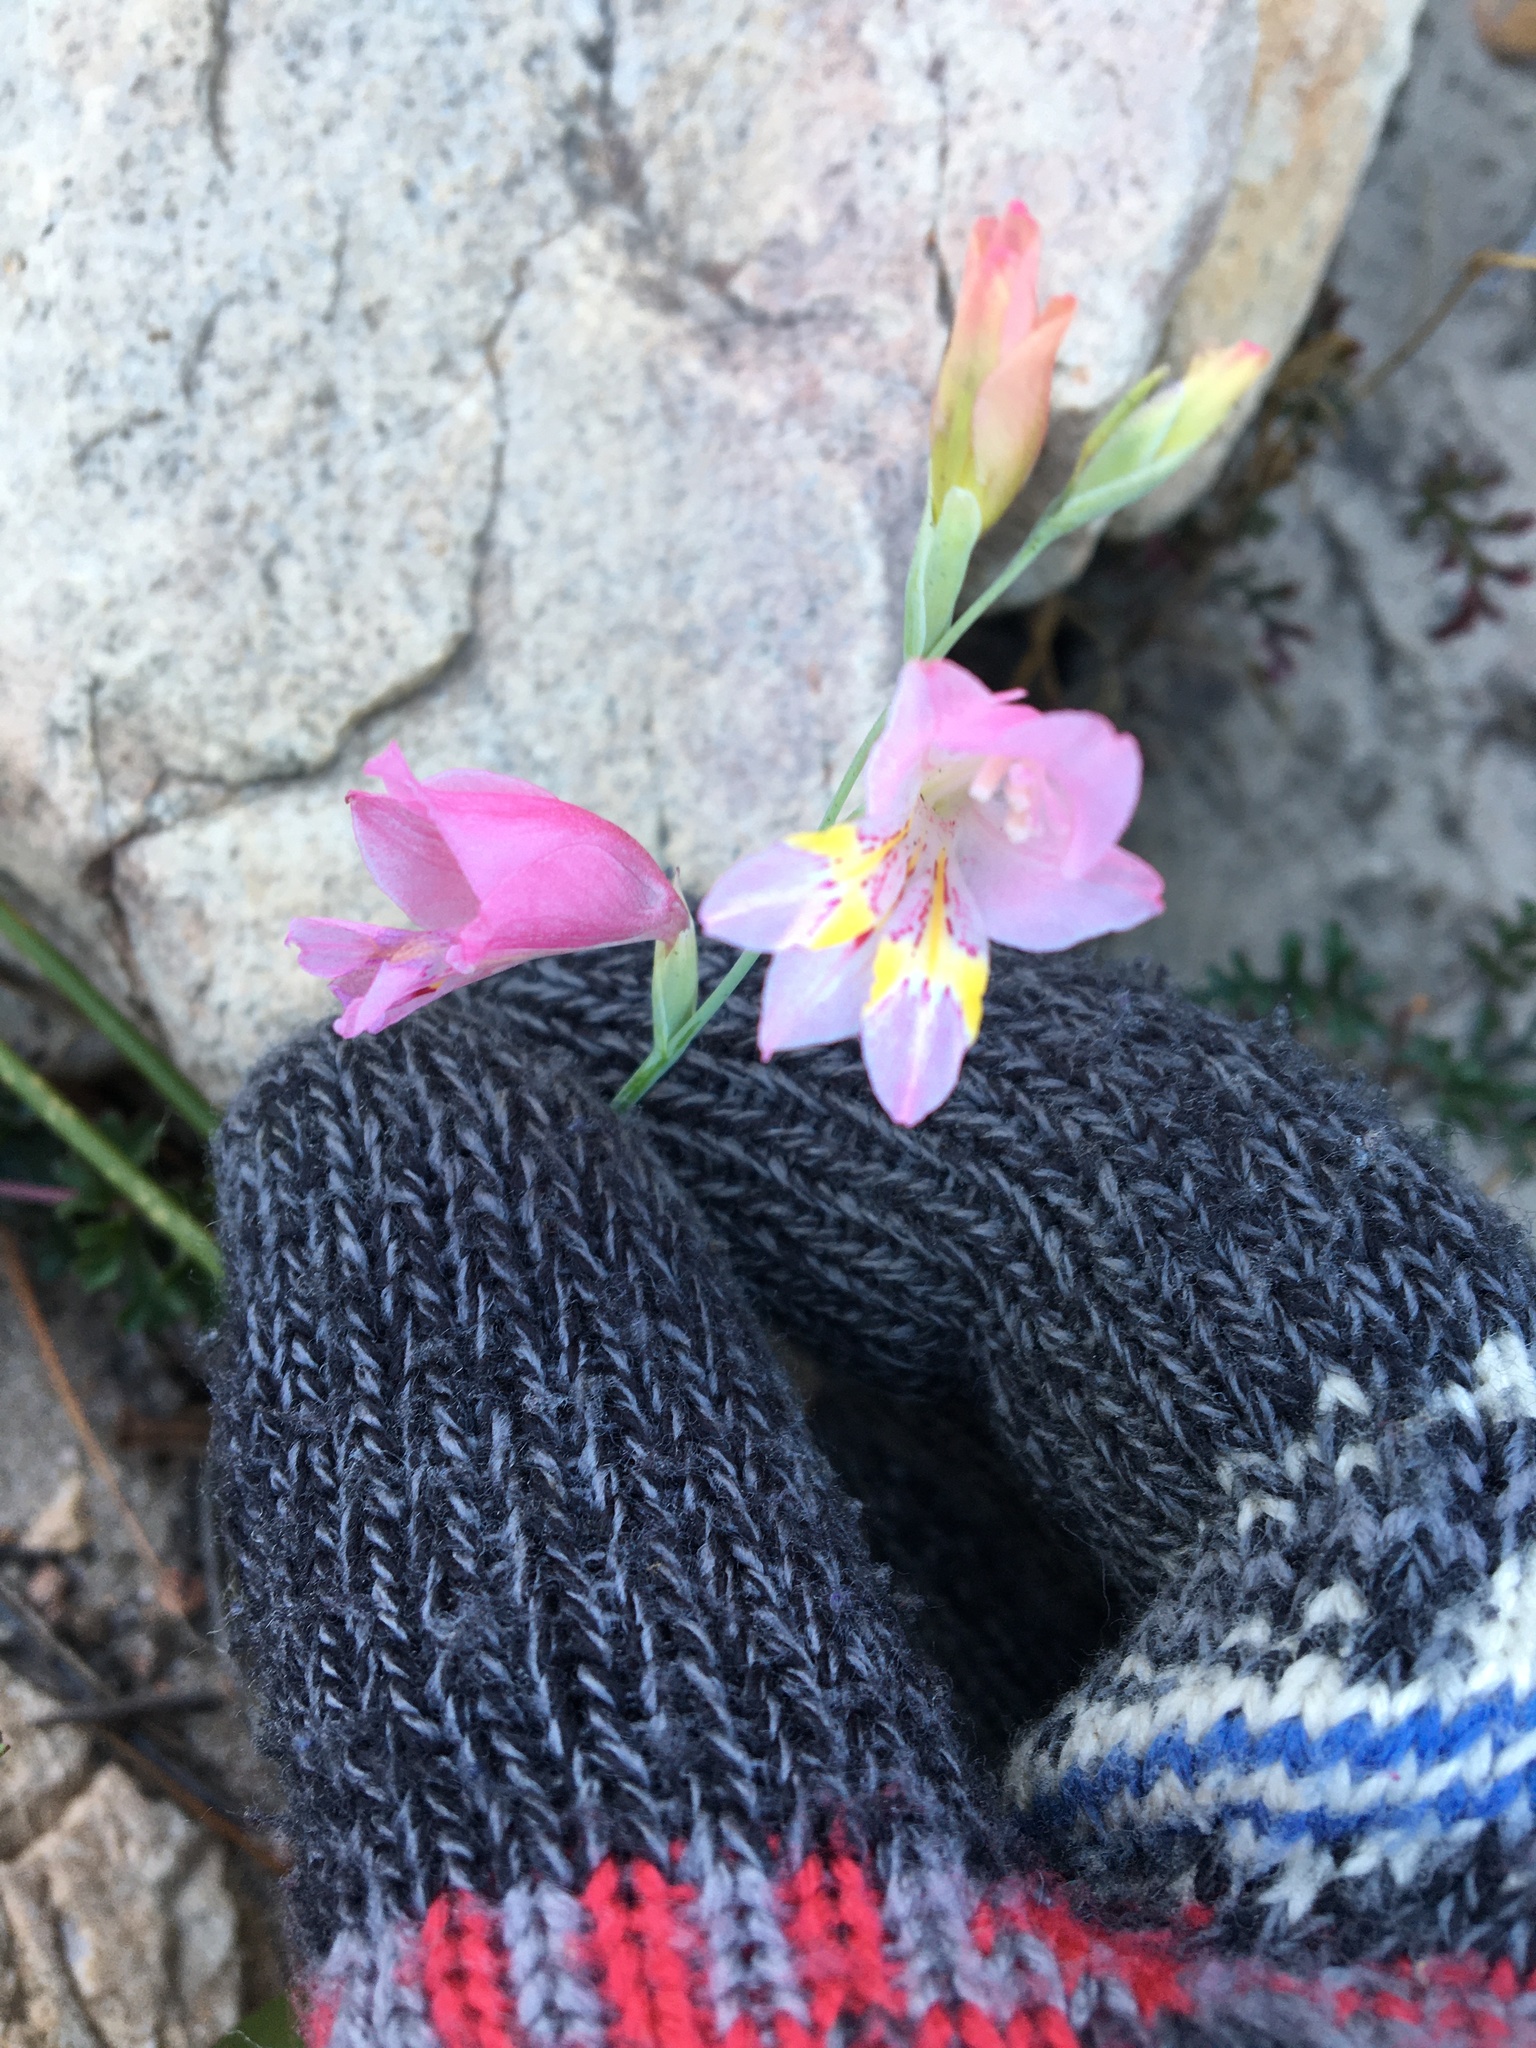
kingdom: Plantae
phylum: Tracheophyta
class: Liliopsida
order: Asparagales
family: Iridaceae
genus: Gladiolus
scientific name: Gladiolus brevifolius
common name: March pypie
